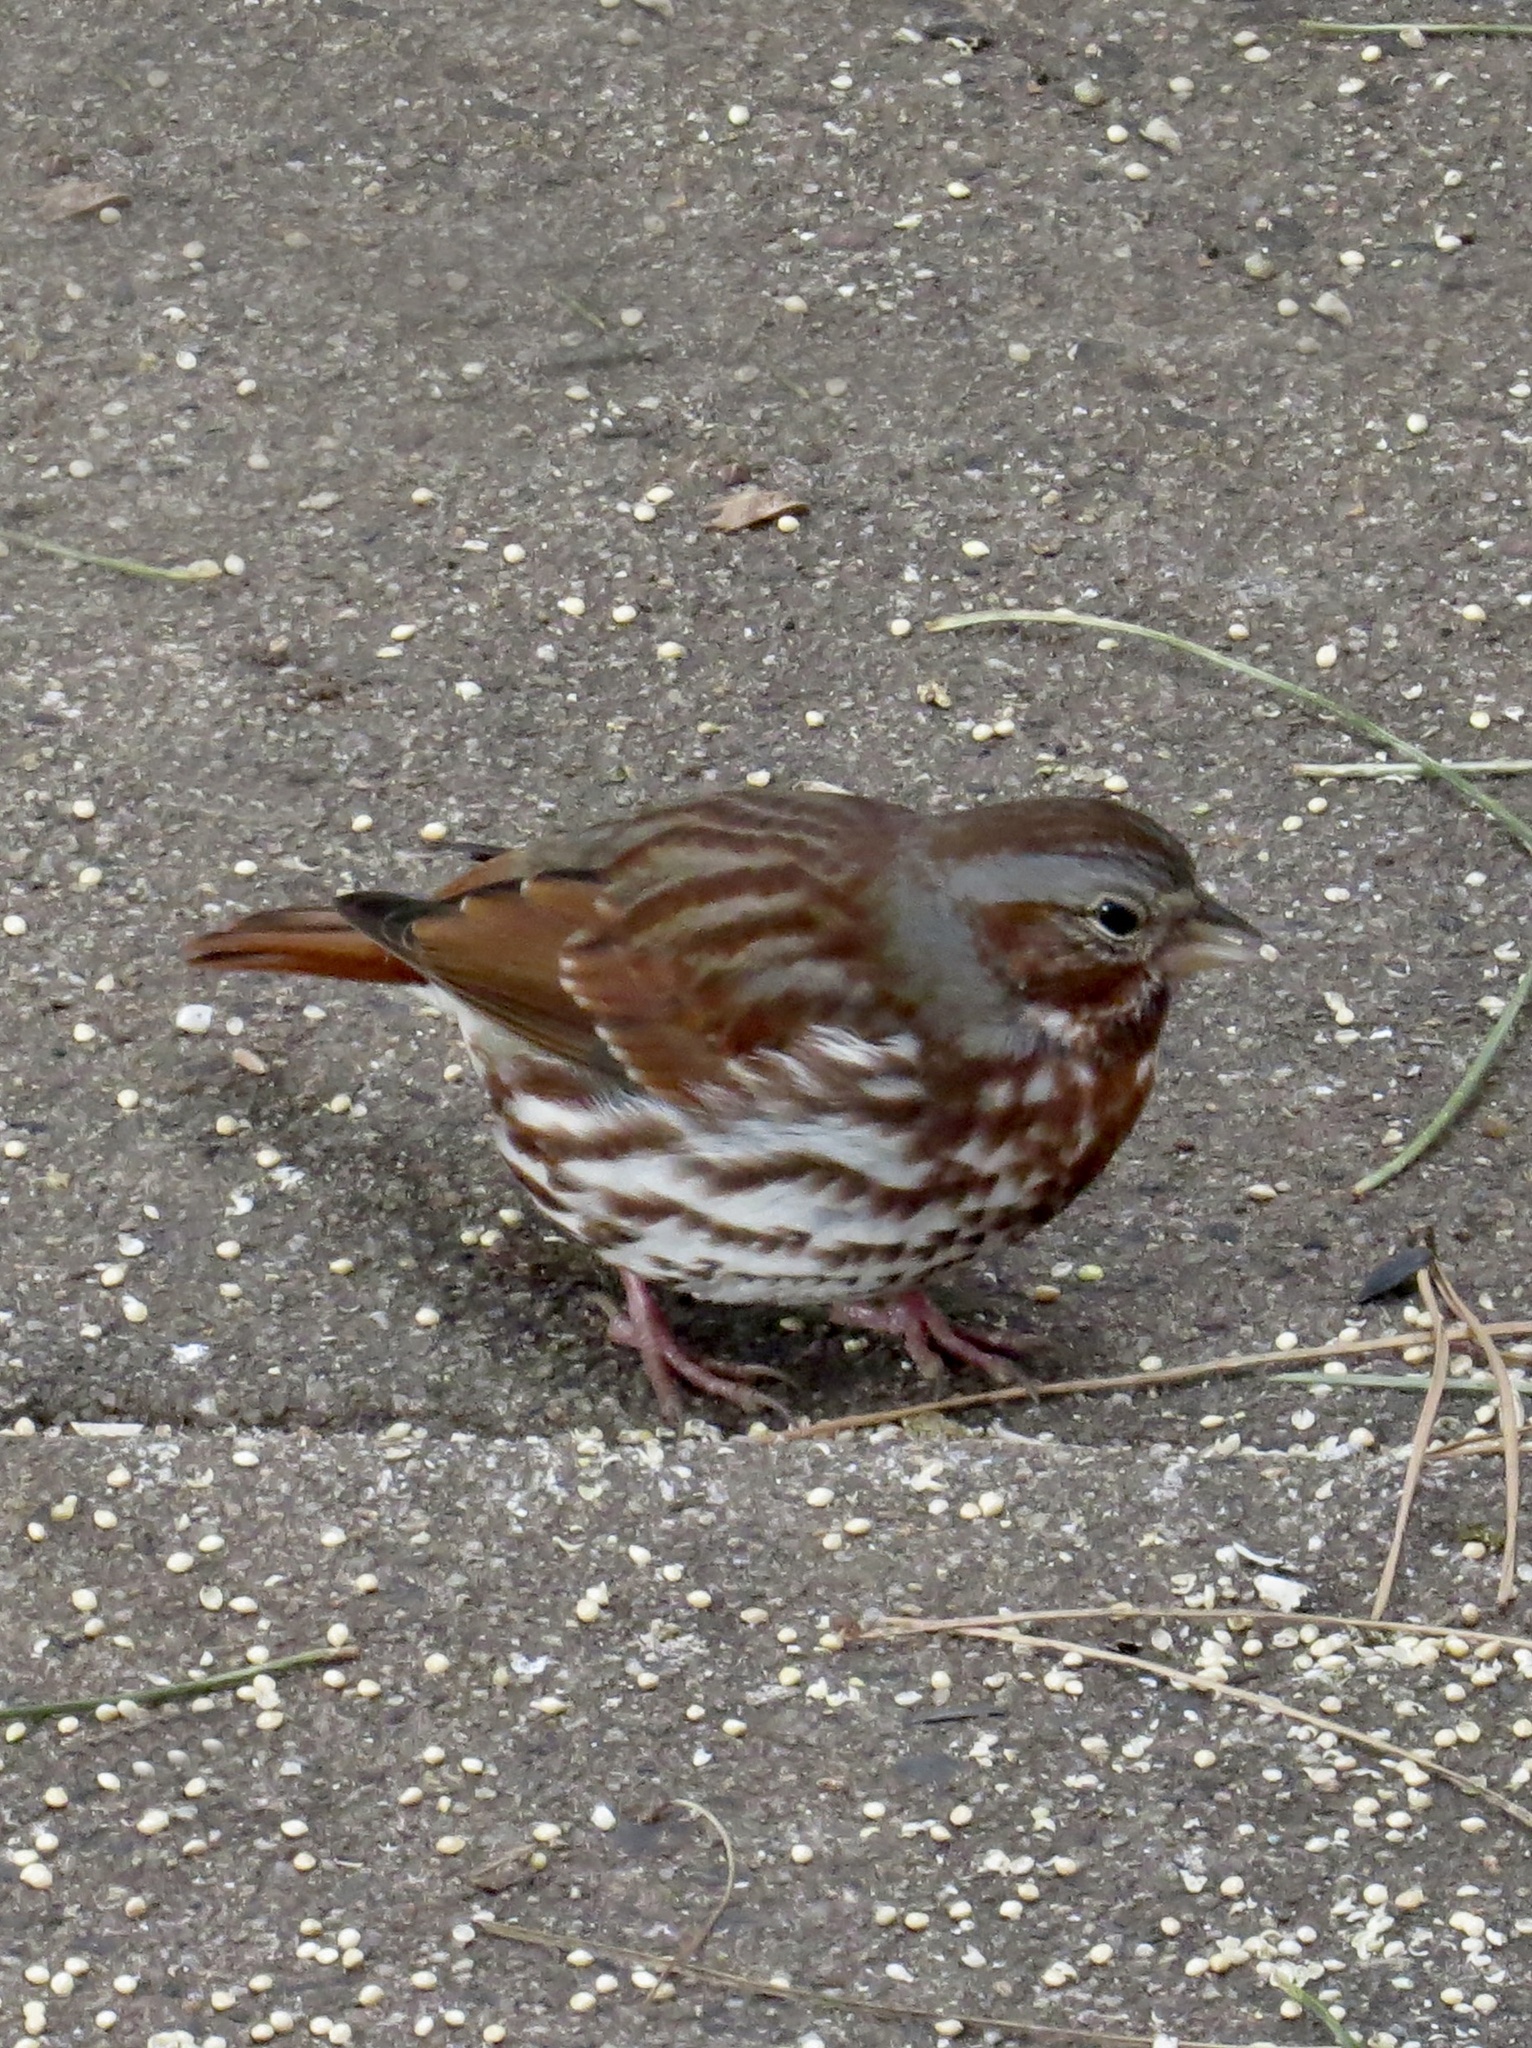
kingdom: Animalia
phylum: Chordata
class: Aves
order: Passeriformes
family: Passerellidae
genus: Passerella
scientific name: Passerella iliaca
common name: Fox sparrow
